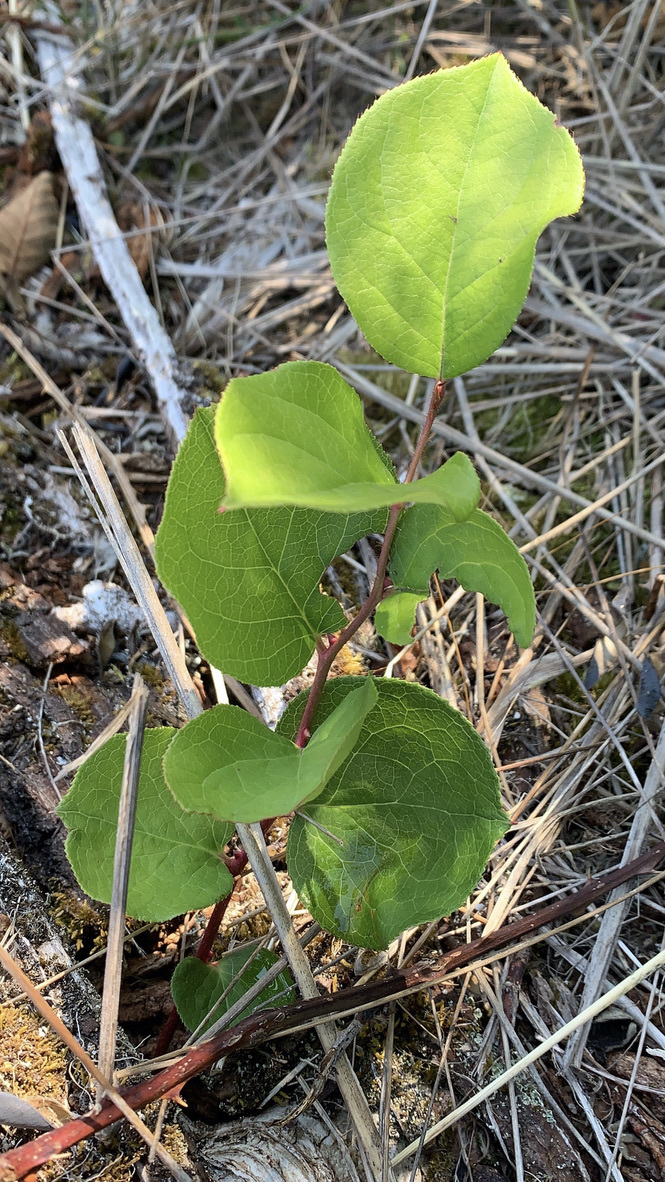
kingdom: Plantae
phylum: Tracheophyta
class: Magnoliopsida
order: Ericales
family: Ericaceae
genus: Gaultheria
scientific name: Gaultheria shallon
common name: Shallon
